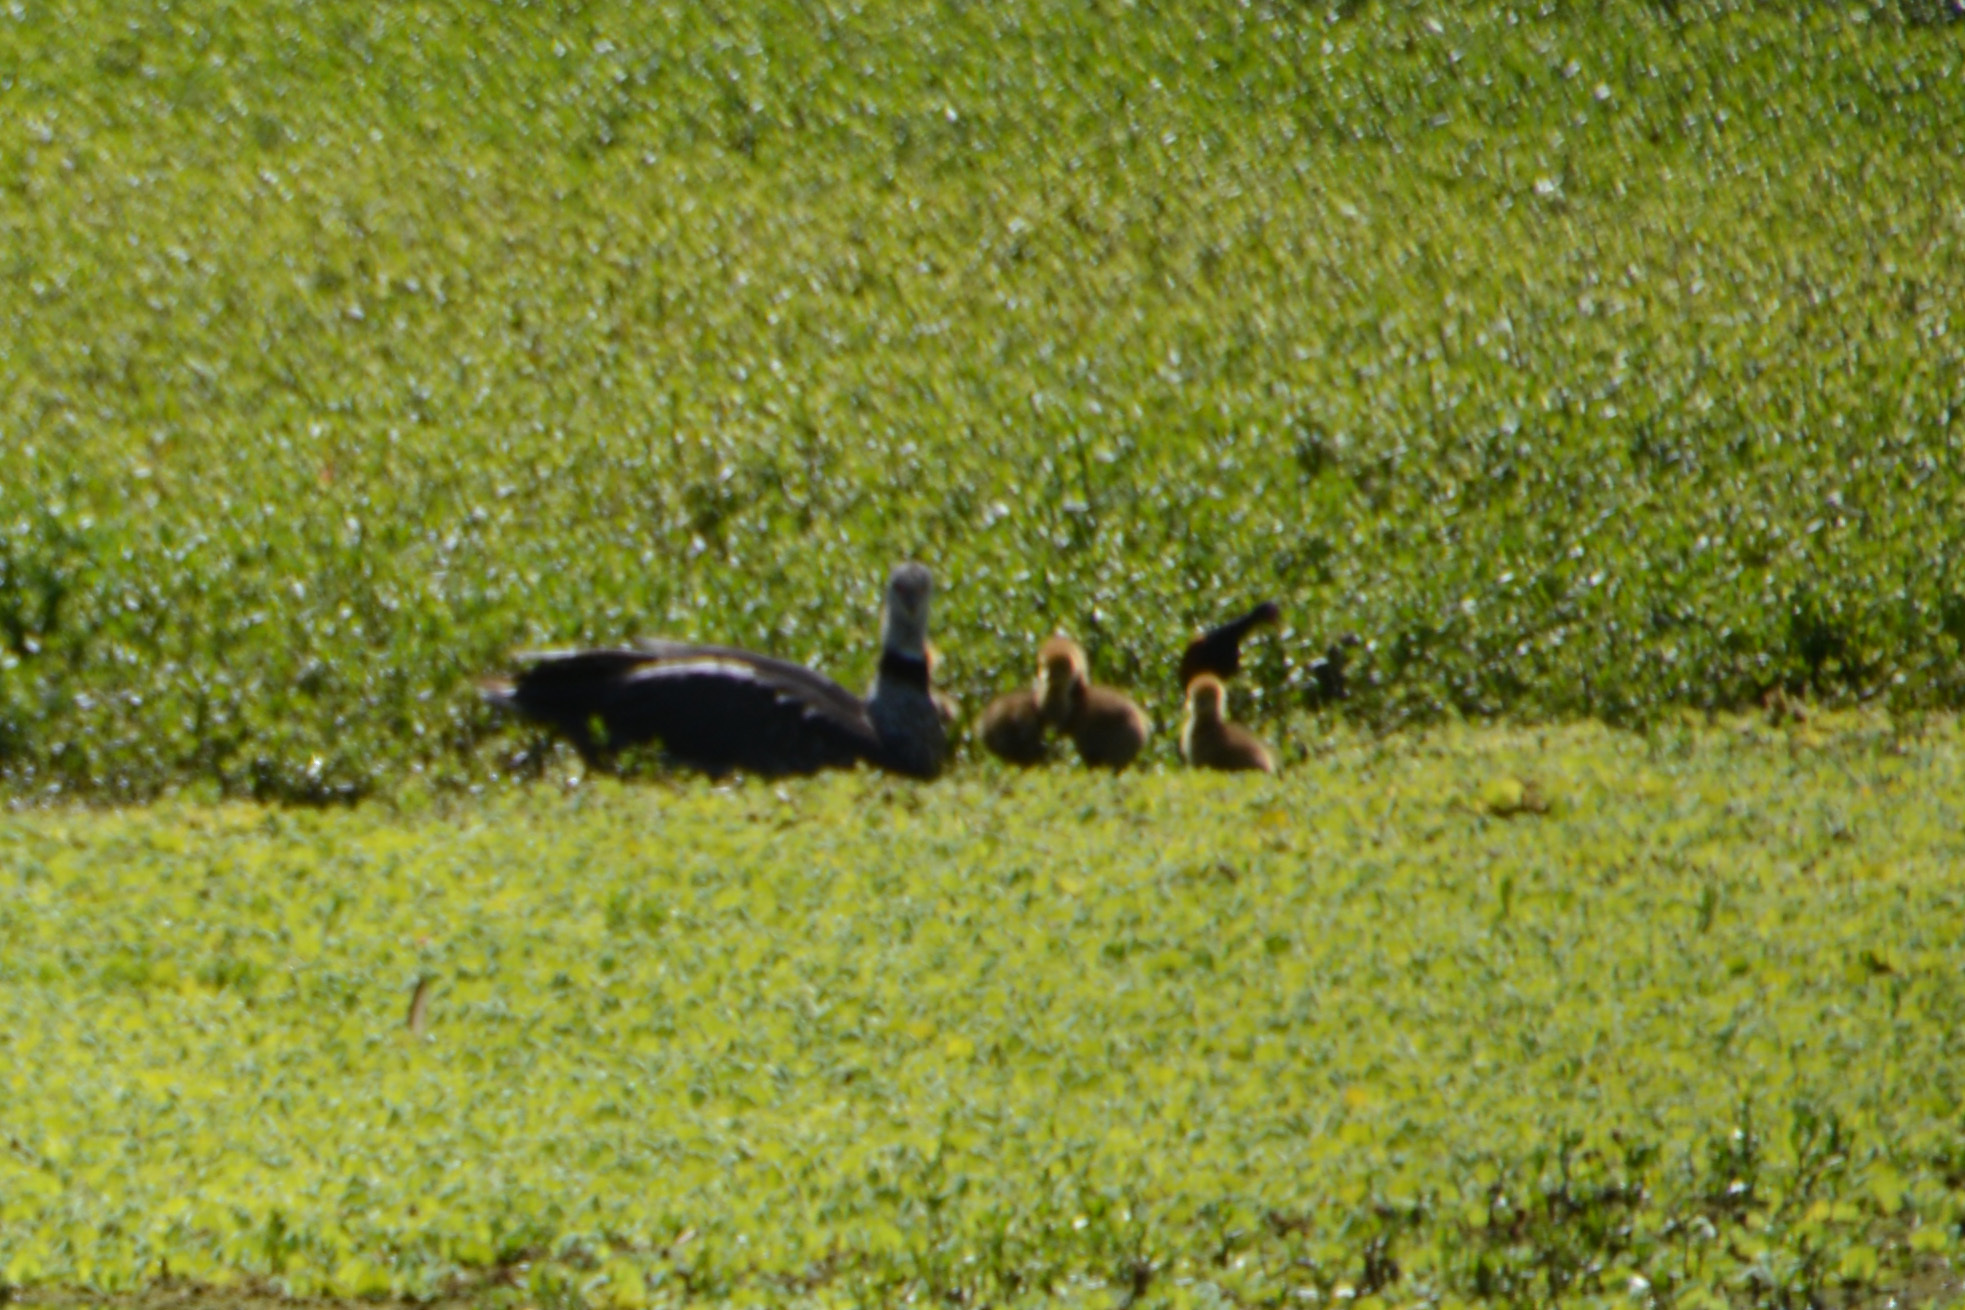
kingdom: Animalia
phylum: Chordata
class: Aves
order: Anseriformes
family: Anhimidae
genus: Chauna
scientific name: Chauna torquata
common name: Southern screamer
